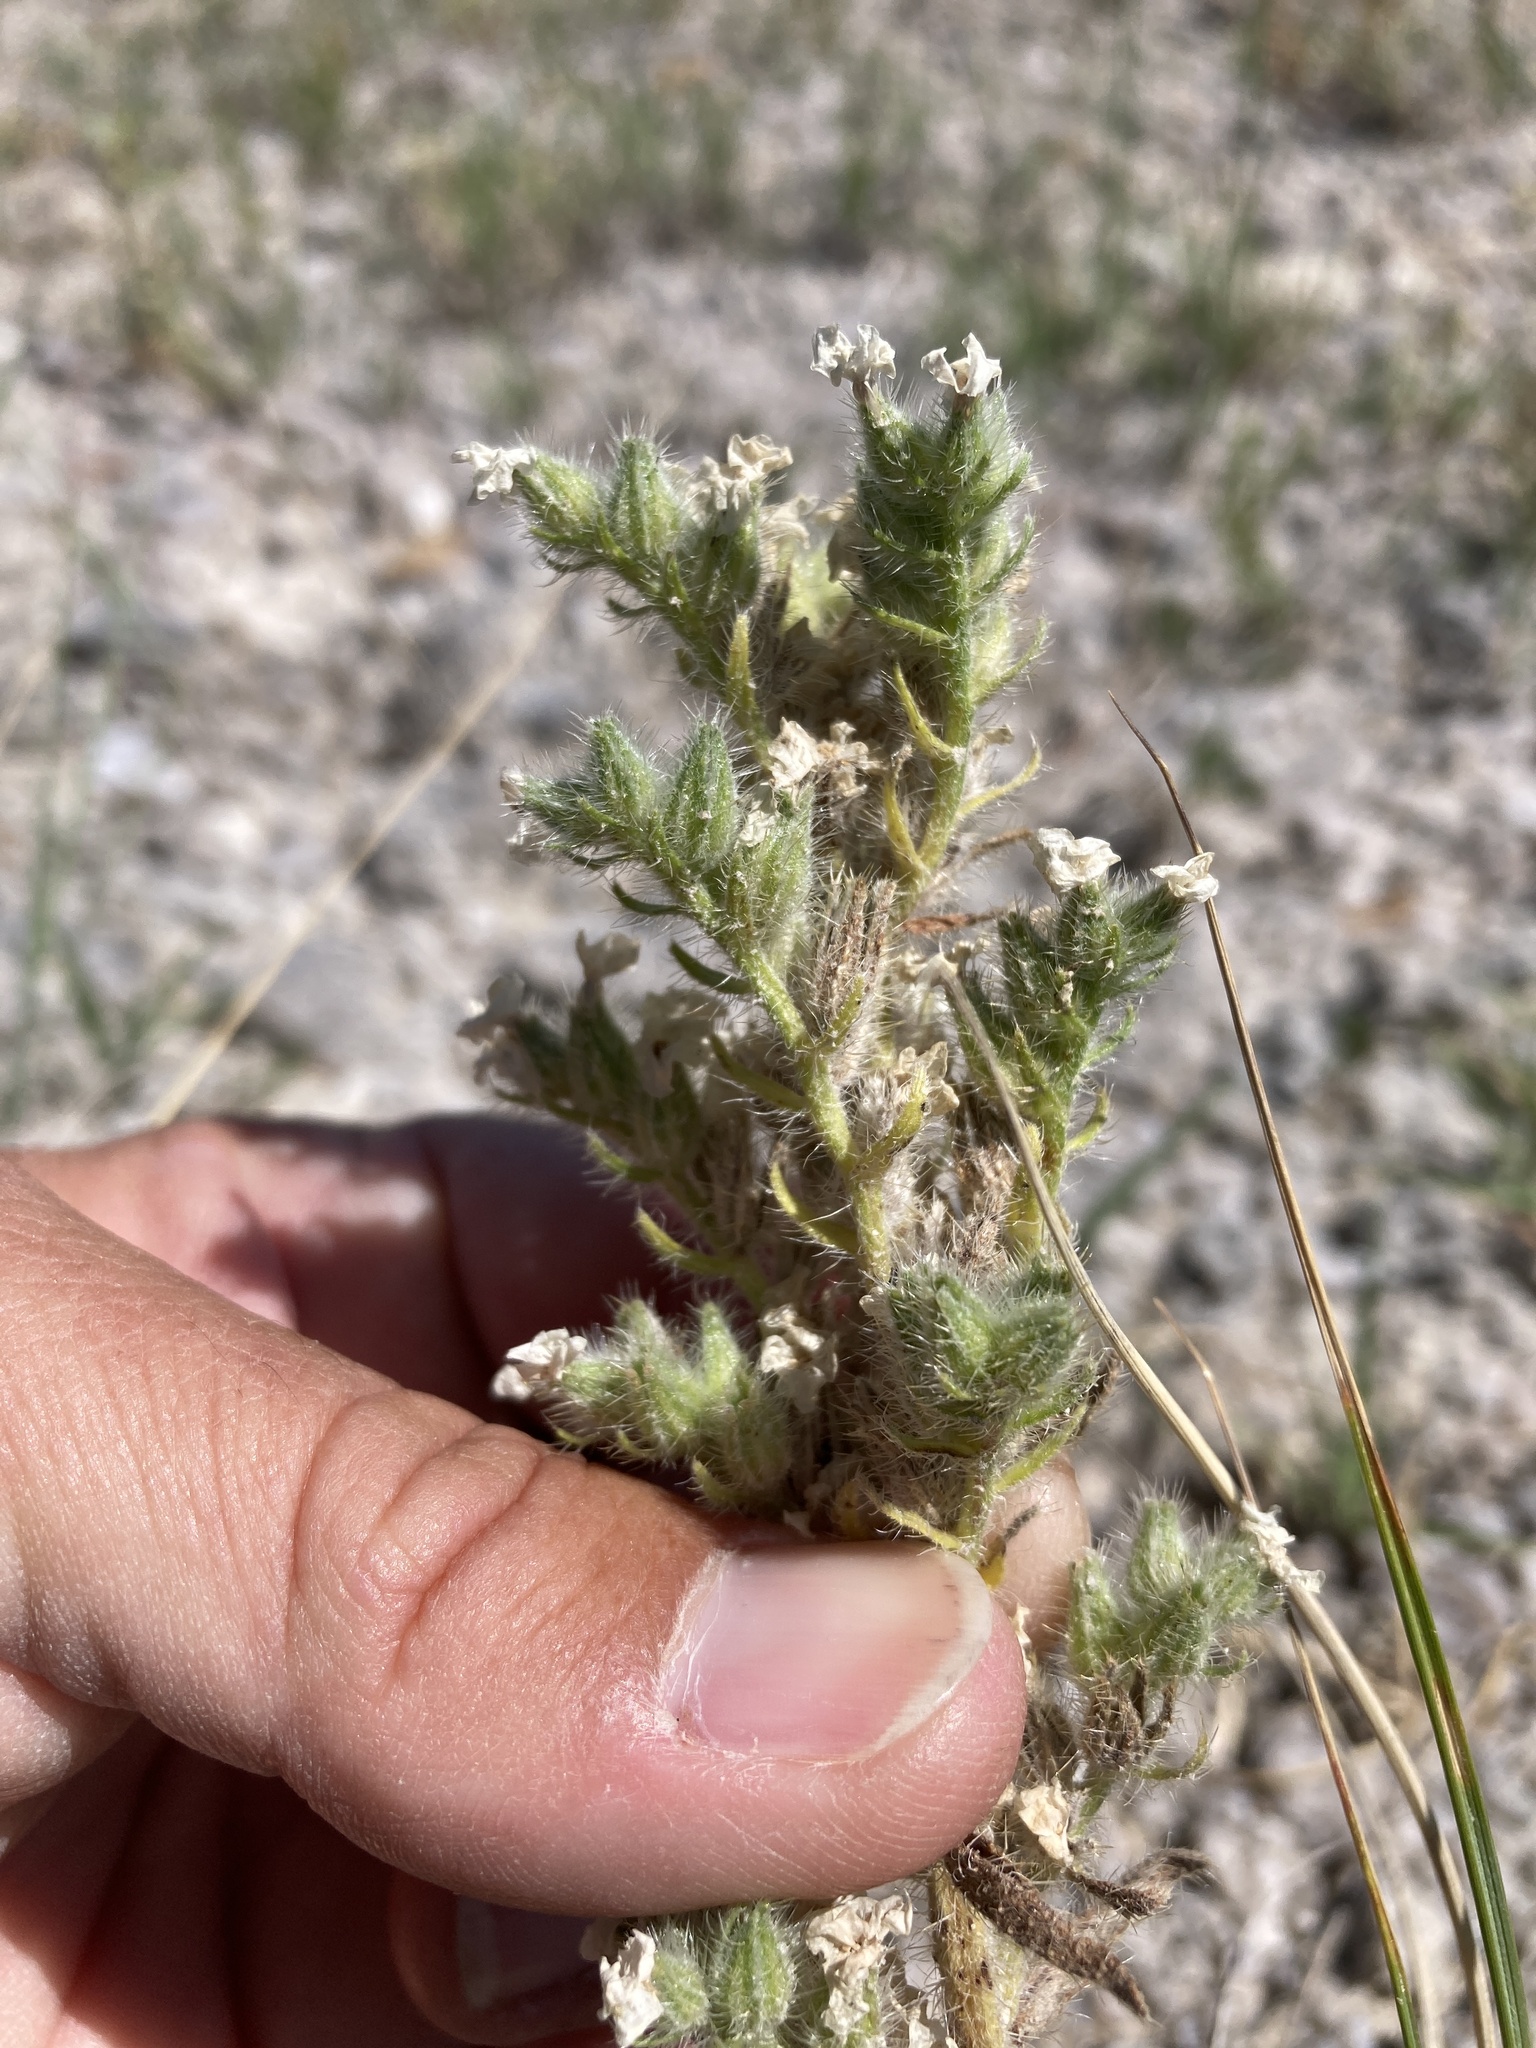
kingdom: Plantae
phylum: Tracheophyta
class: Magnoliopsida
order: Boraginales
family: Boraginaceae
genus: Oreocarya
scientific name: Oreocarya glomerata
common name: Macoun's cryptantha
